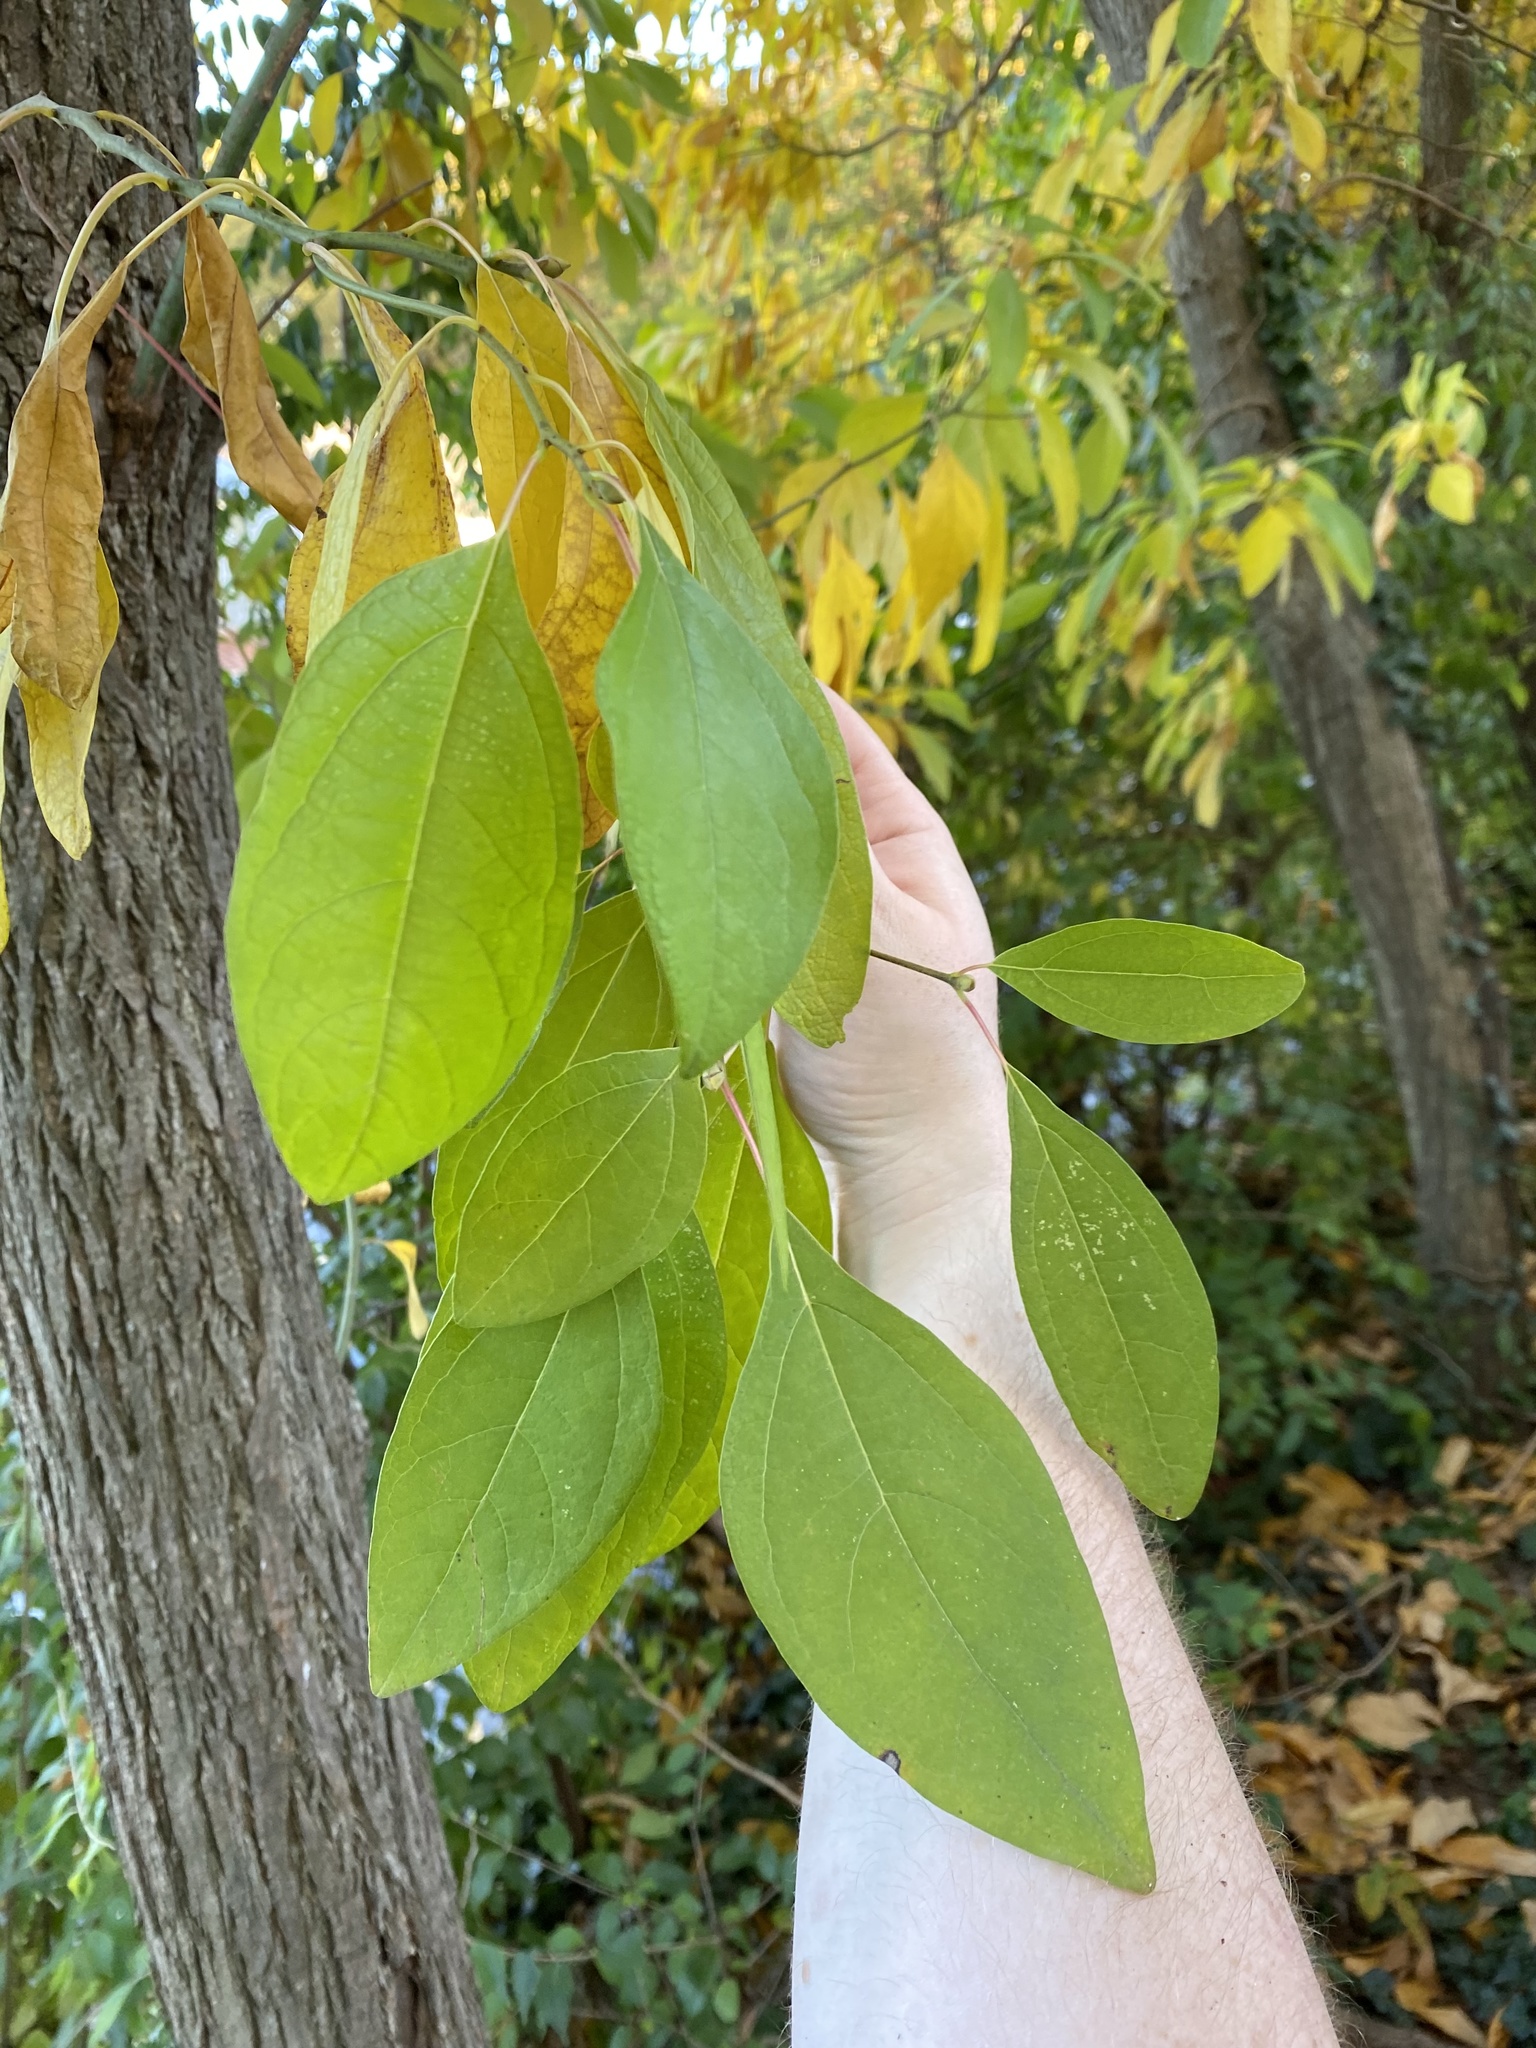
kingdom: Plantae
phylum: Tracheophyta
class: Magnoliopsida
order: Laurales
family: Lauraceae
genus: Sassafras
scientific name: Sassafras albidum
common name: Sassafras
